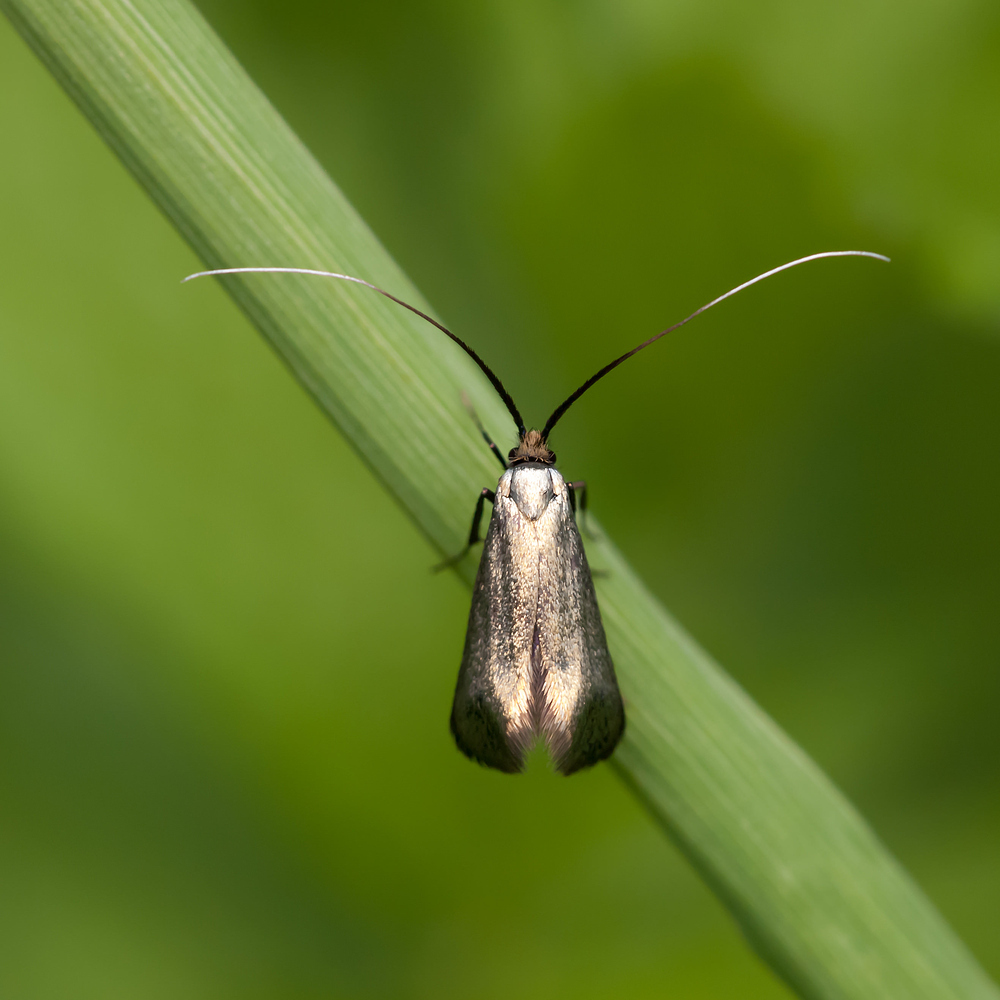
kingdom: Animalia
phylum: Arthropoda
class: Insecta
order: Lepidoptera
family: Adelidae
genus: Adela
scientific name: Adela viridella
